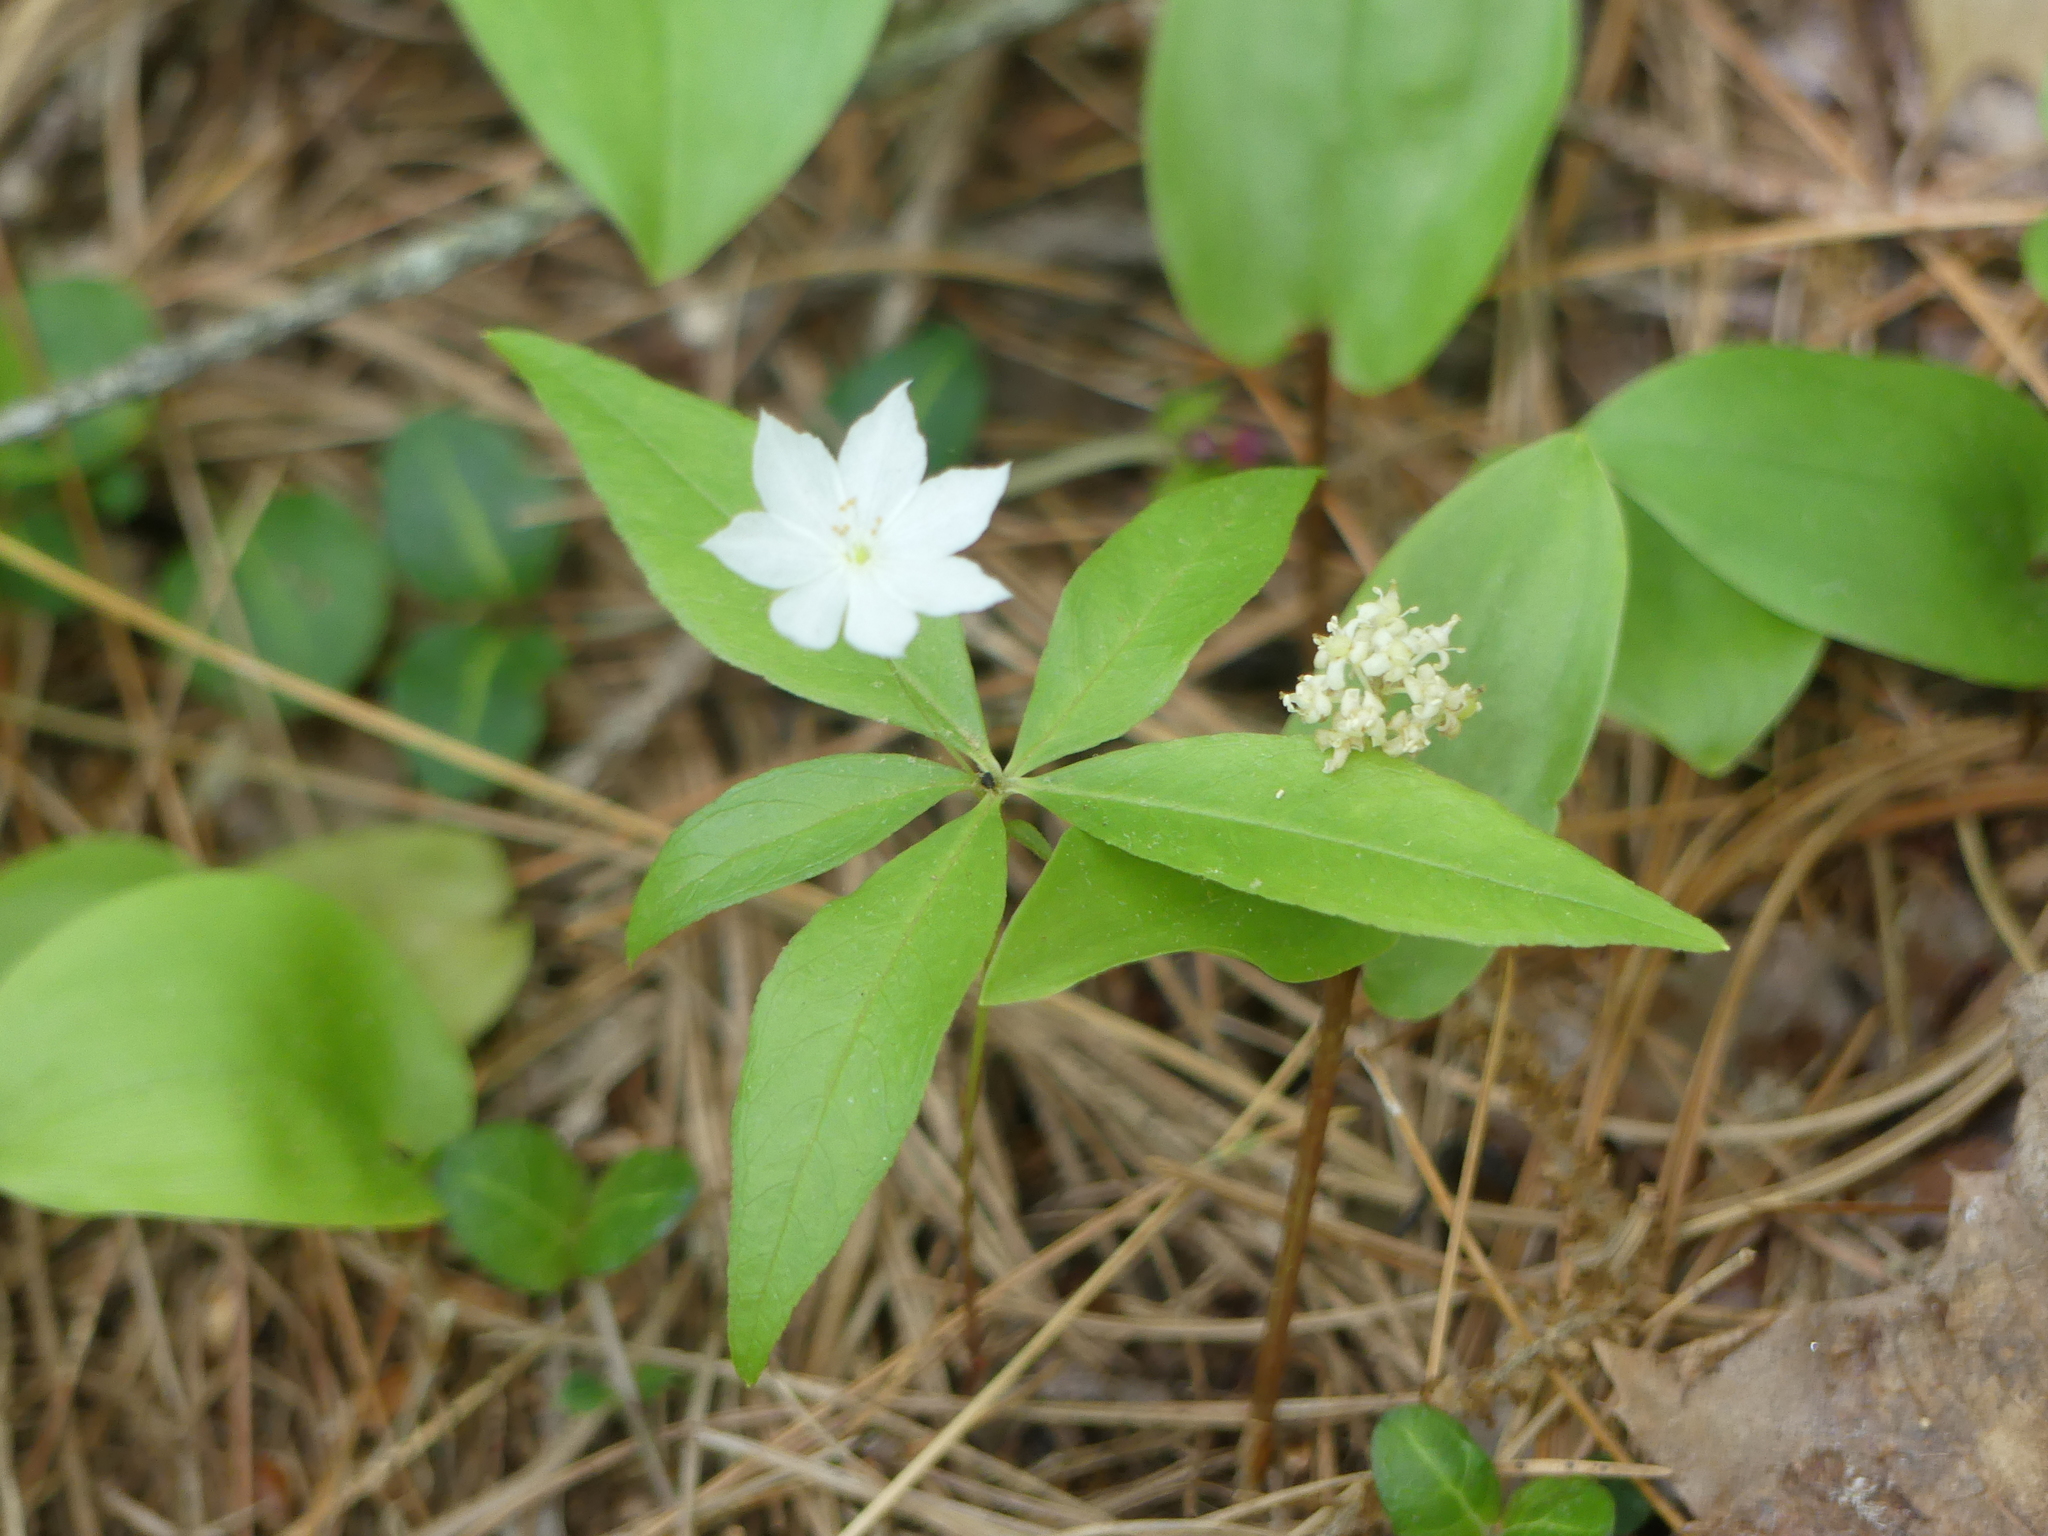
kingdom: Plantae
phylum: Tracheophyta
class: Magnoliopsida
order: Ericales
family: Primulaceae
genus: Lysimachia
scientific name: Lysimachia borealis
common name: American starflower
